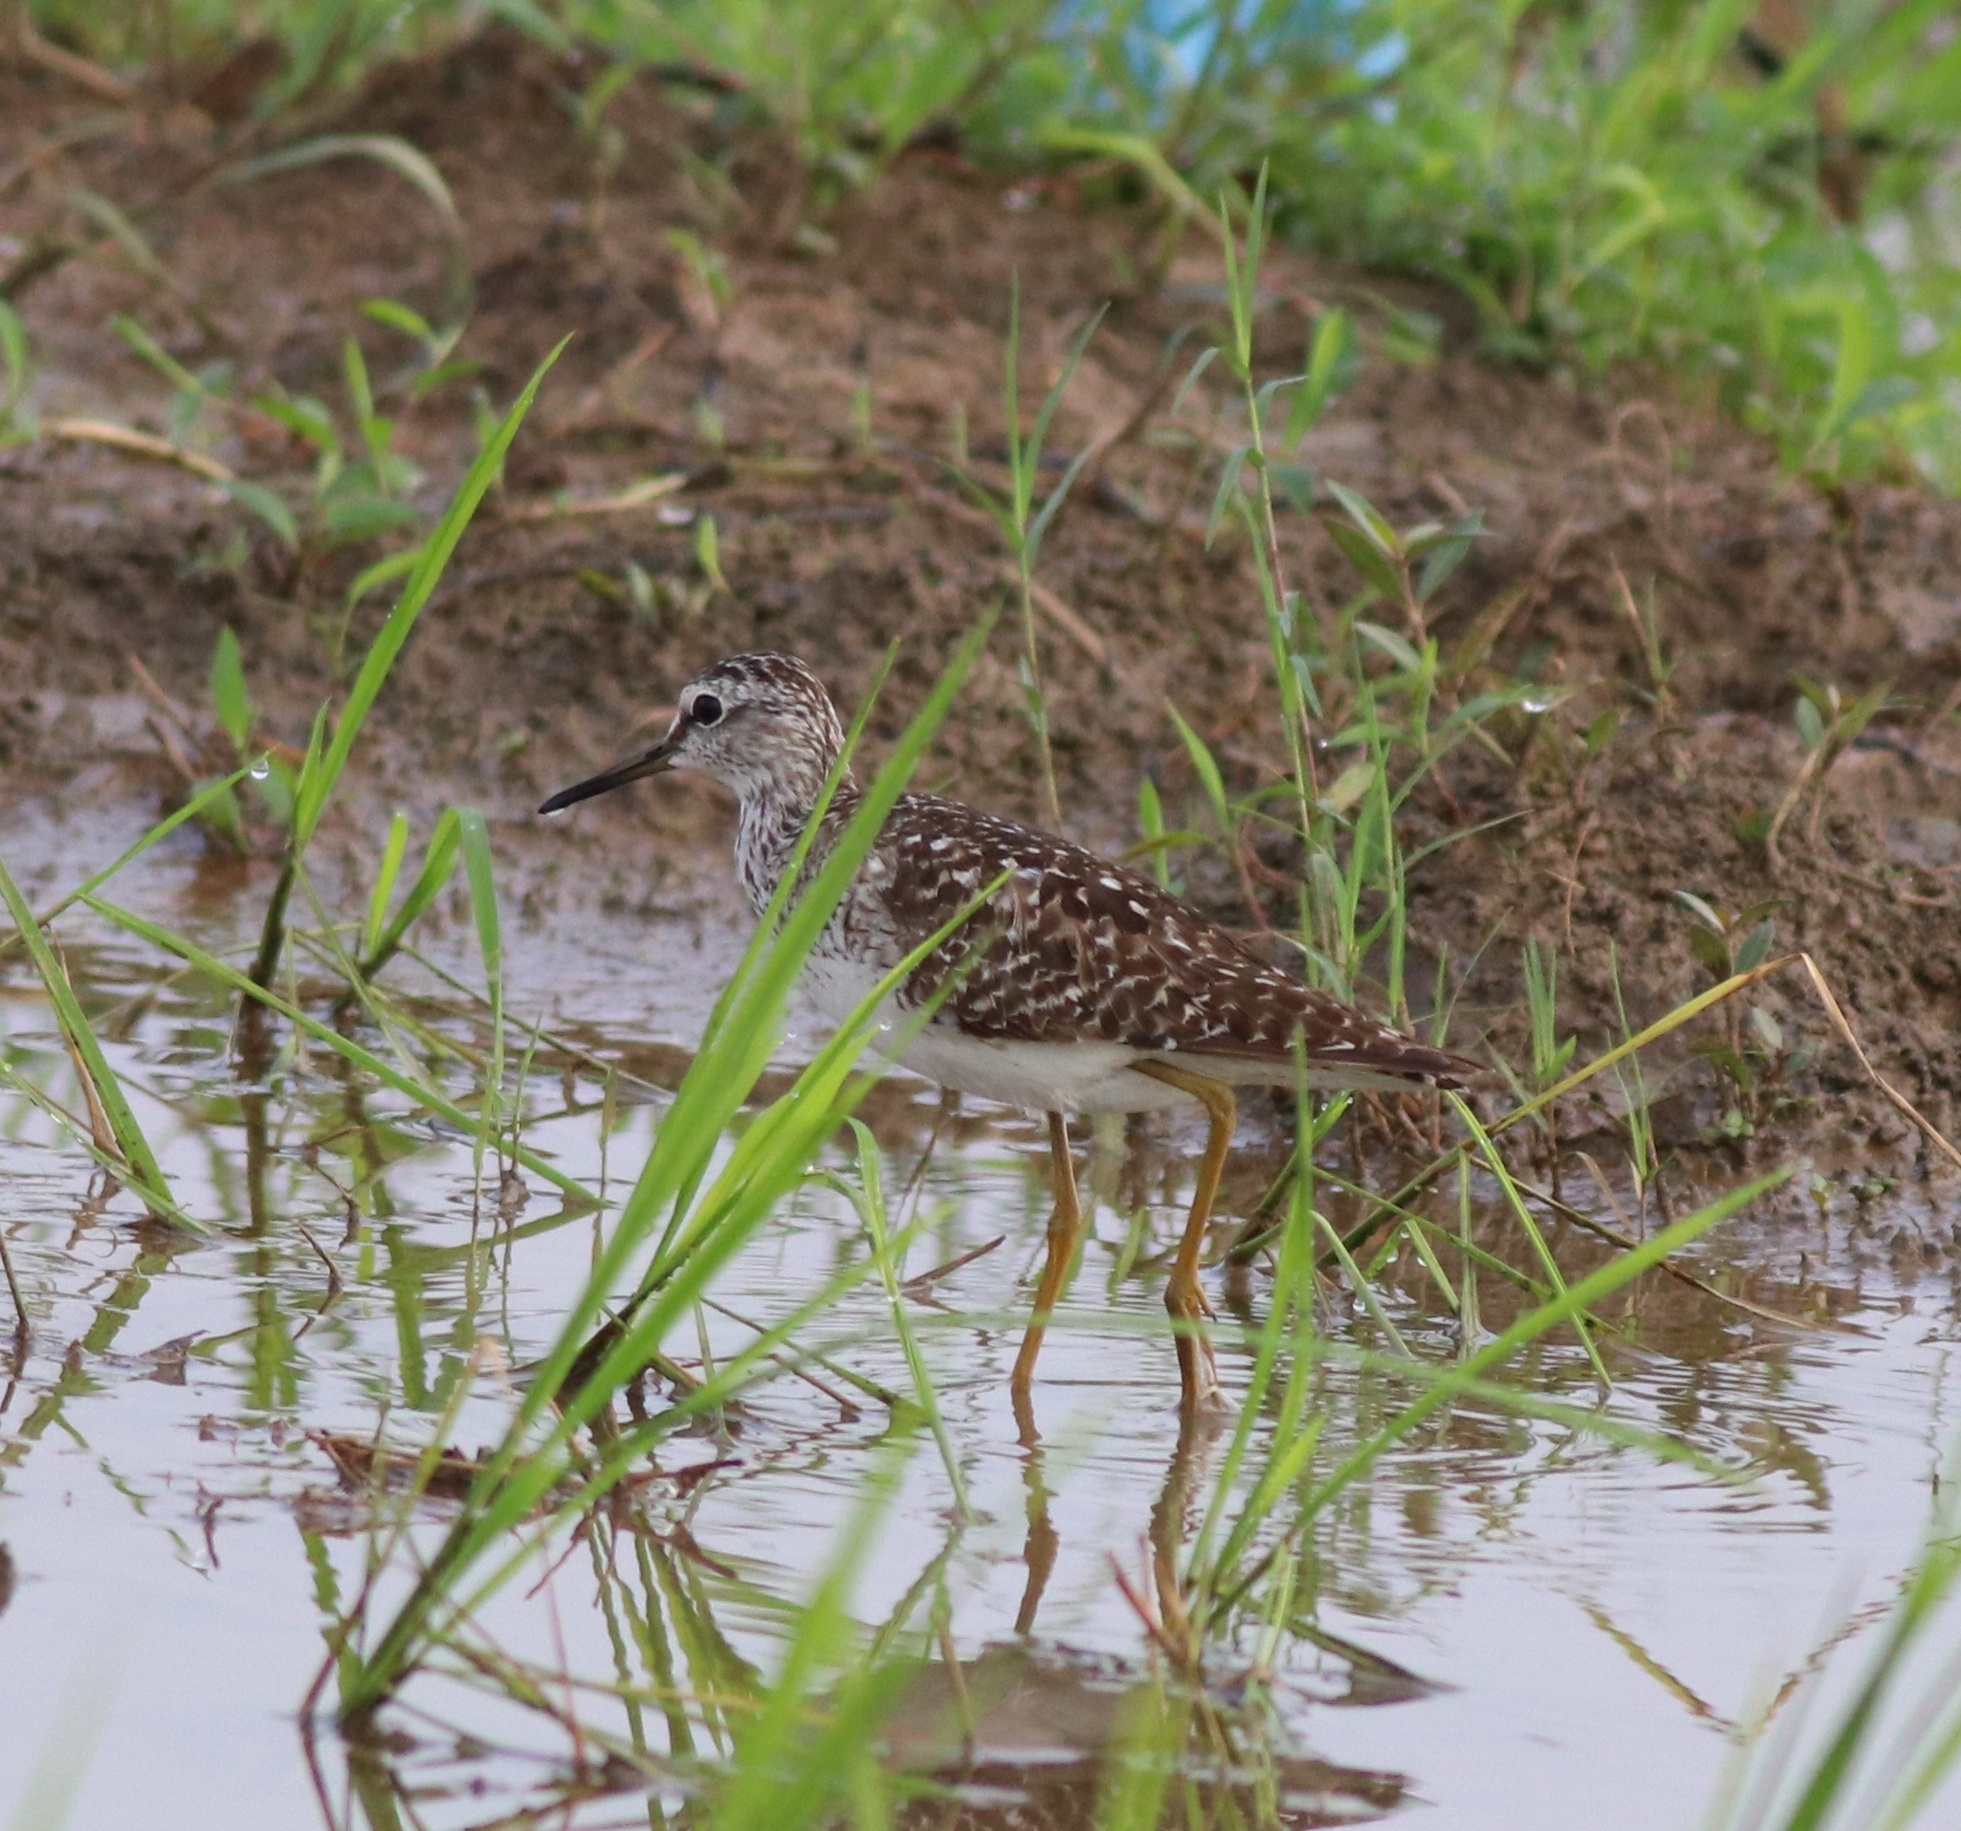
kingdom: Animalia
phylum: Chordata
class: Aves
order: Charadriiformes
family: Scolopacidae
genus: Tringa
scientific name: Tringa glareola
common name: Wood sandpiper
